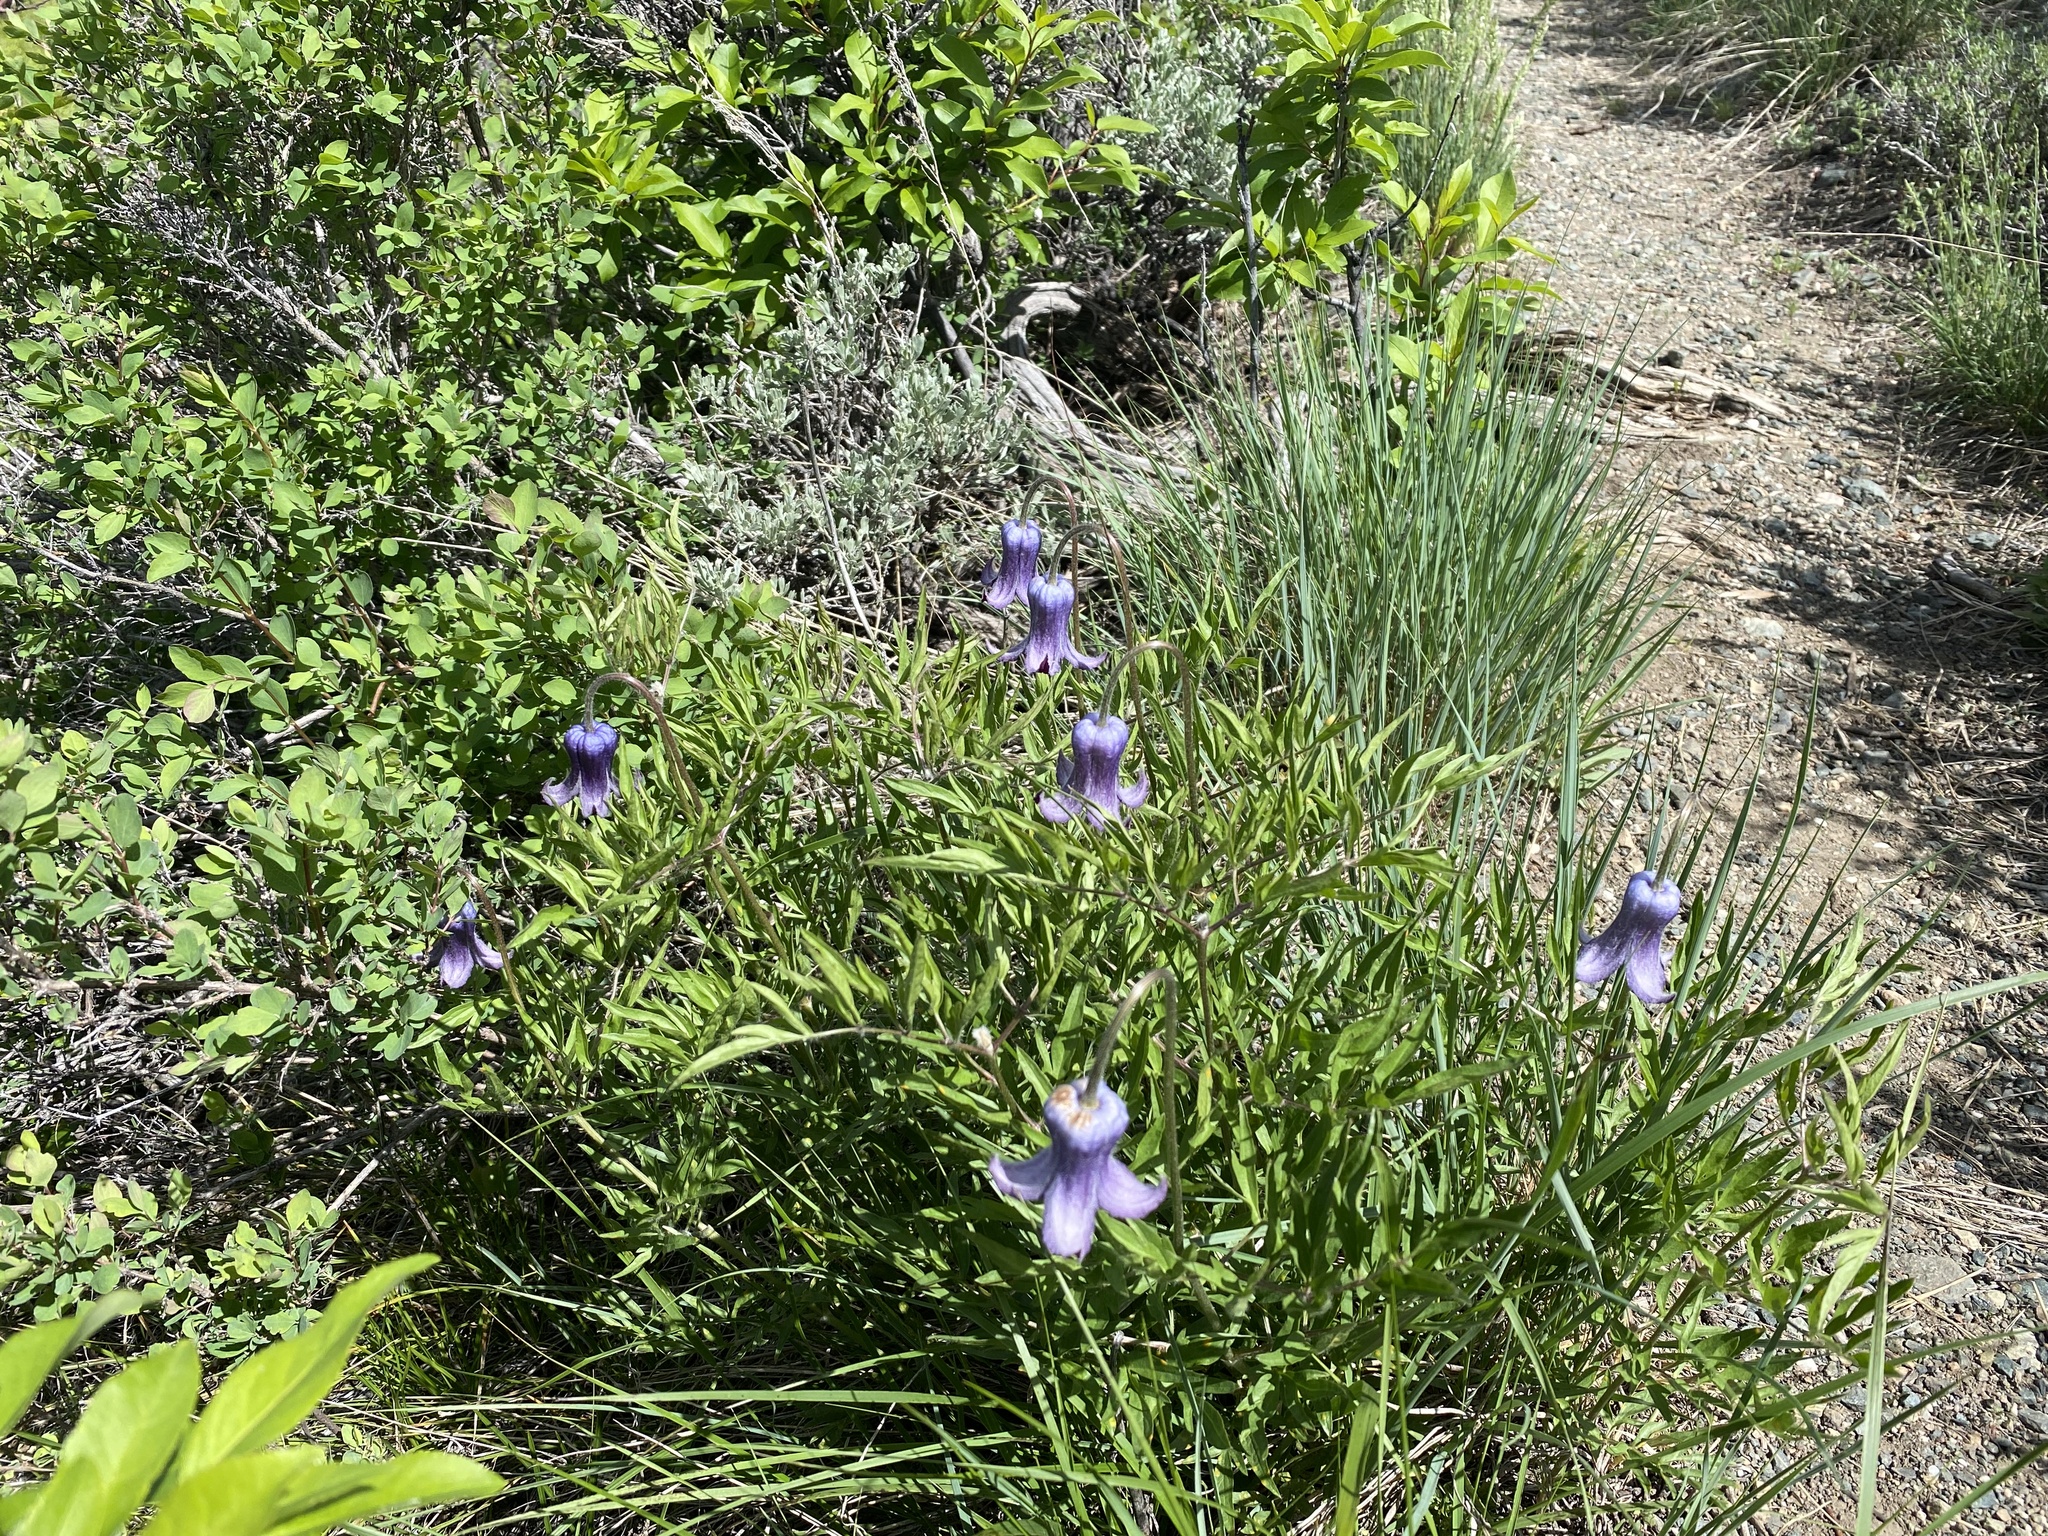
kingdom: Plantae
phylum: Tracheophyta
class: Magnoliopsida
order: Ranunculales
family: Ranunculaceae
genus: Clematis
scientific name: Clematis hirsutissima
